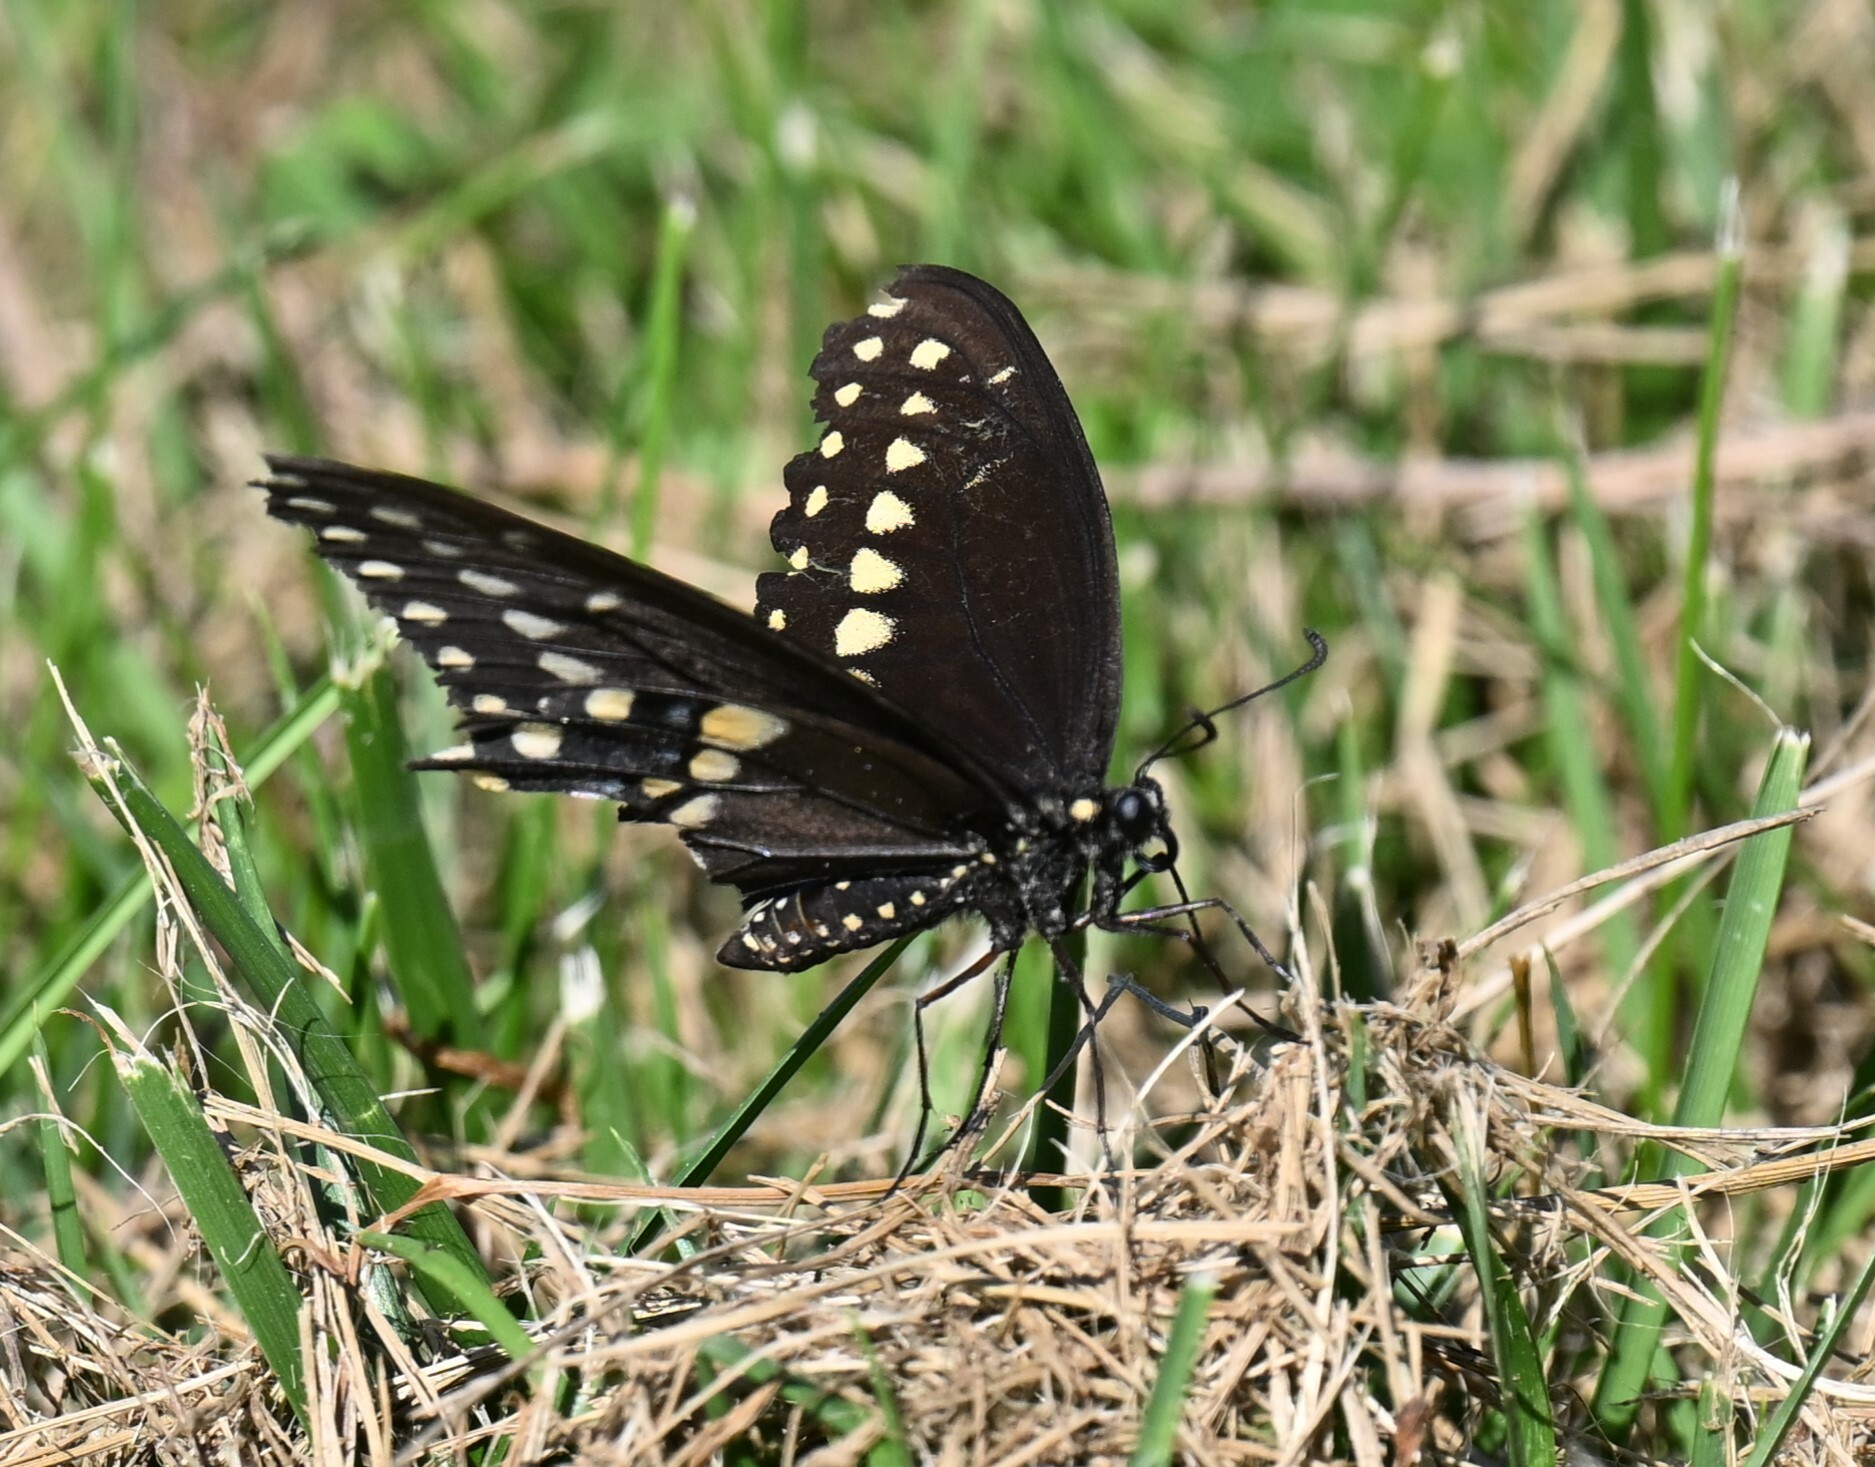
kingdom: Animalia
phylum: Arthropoda
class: Insecta
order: Lepidoptera
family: Papilionidae
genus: Papilio
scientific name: Papilio polyxenes
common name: Black swallowtail
